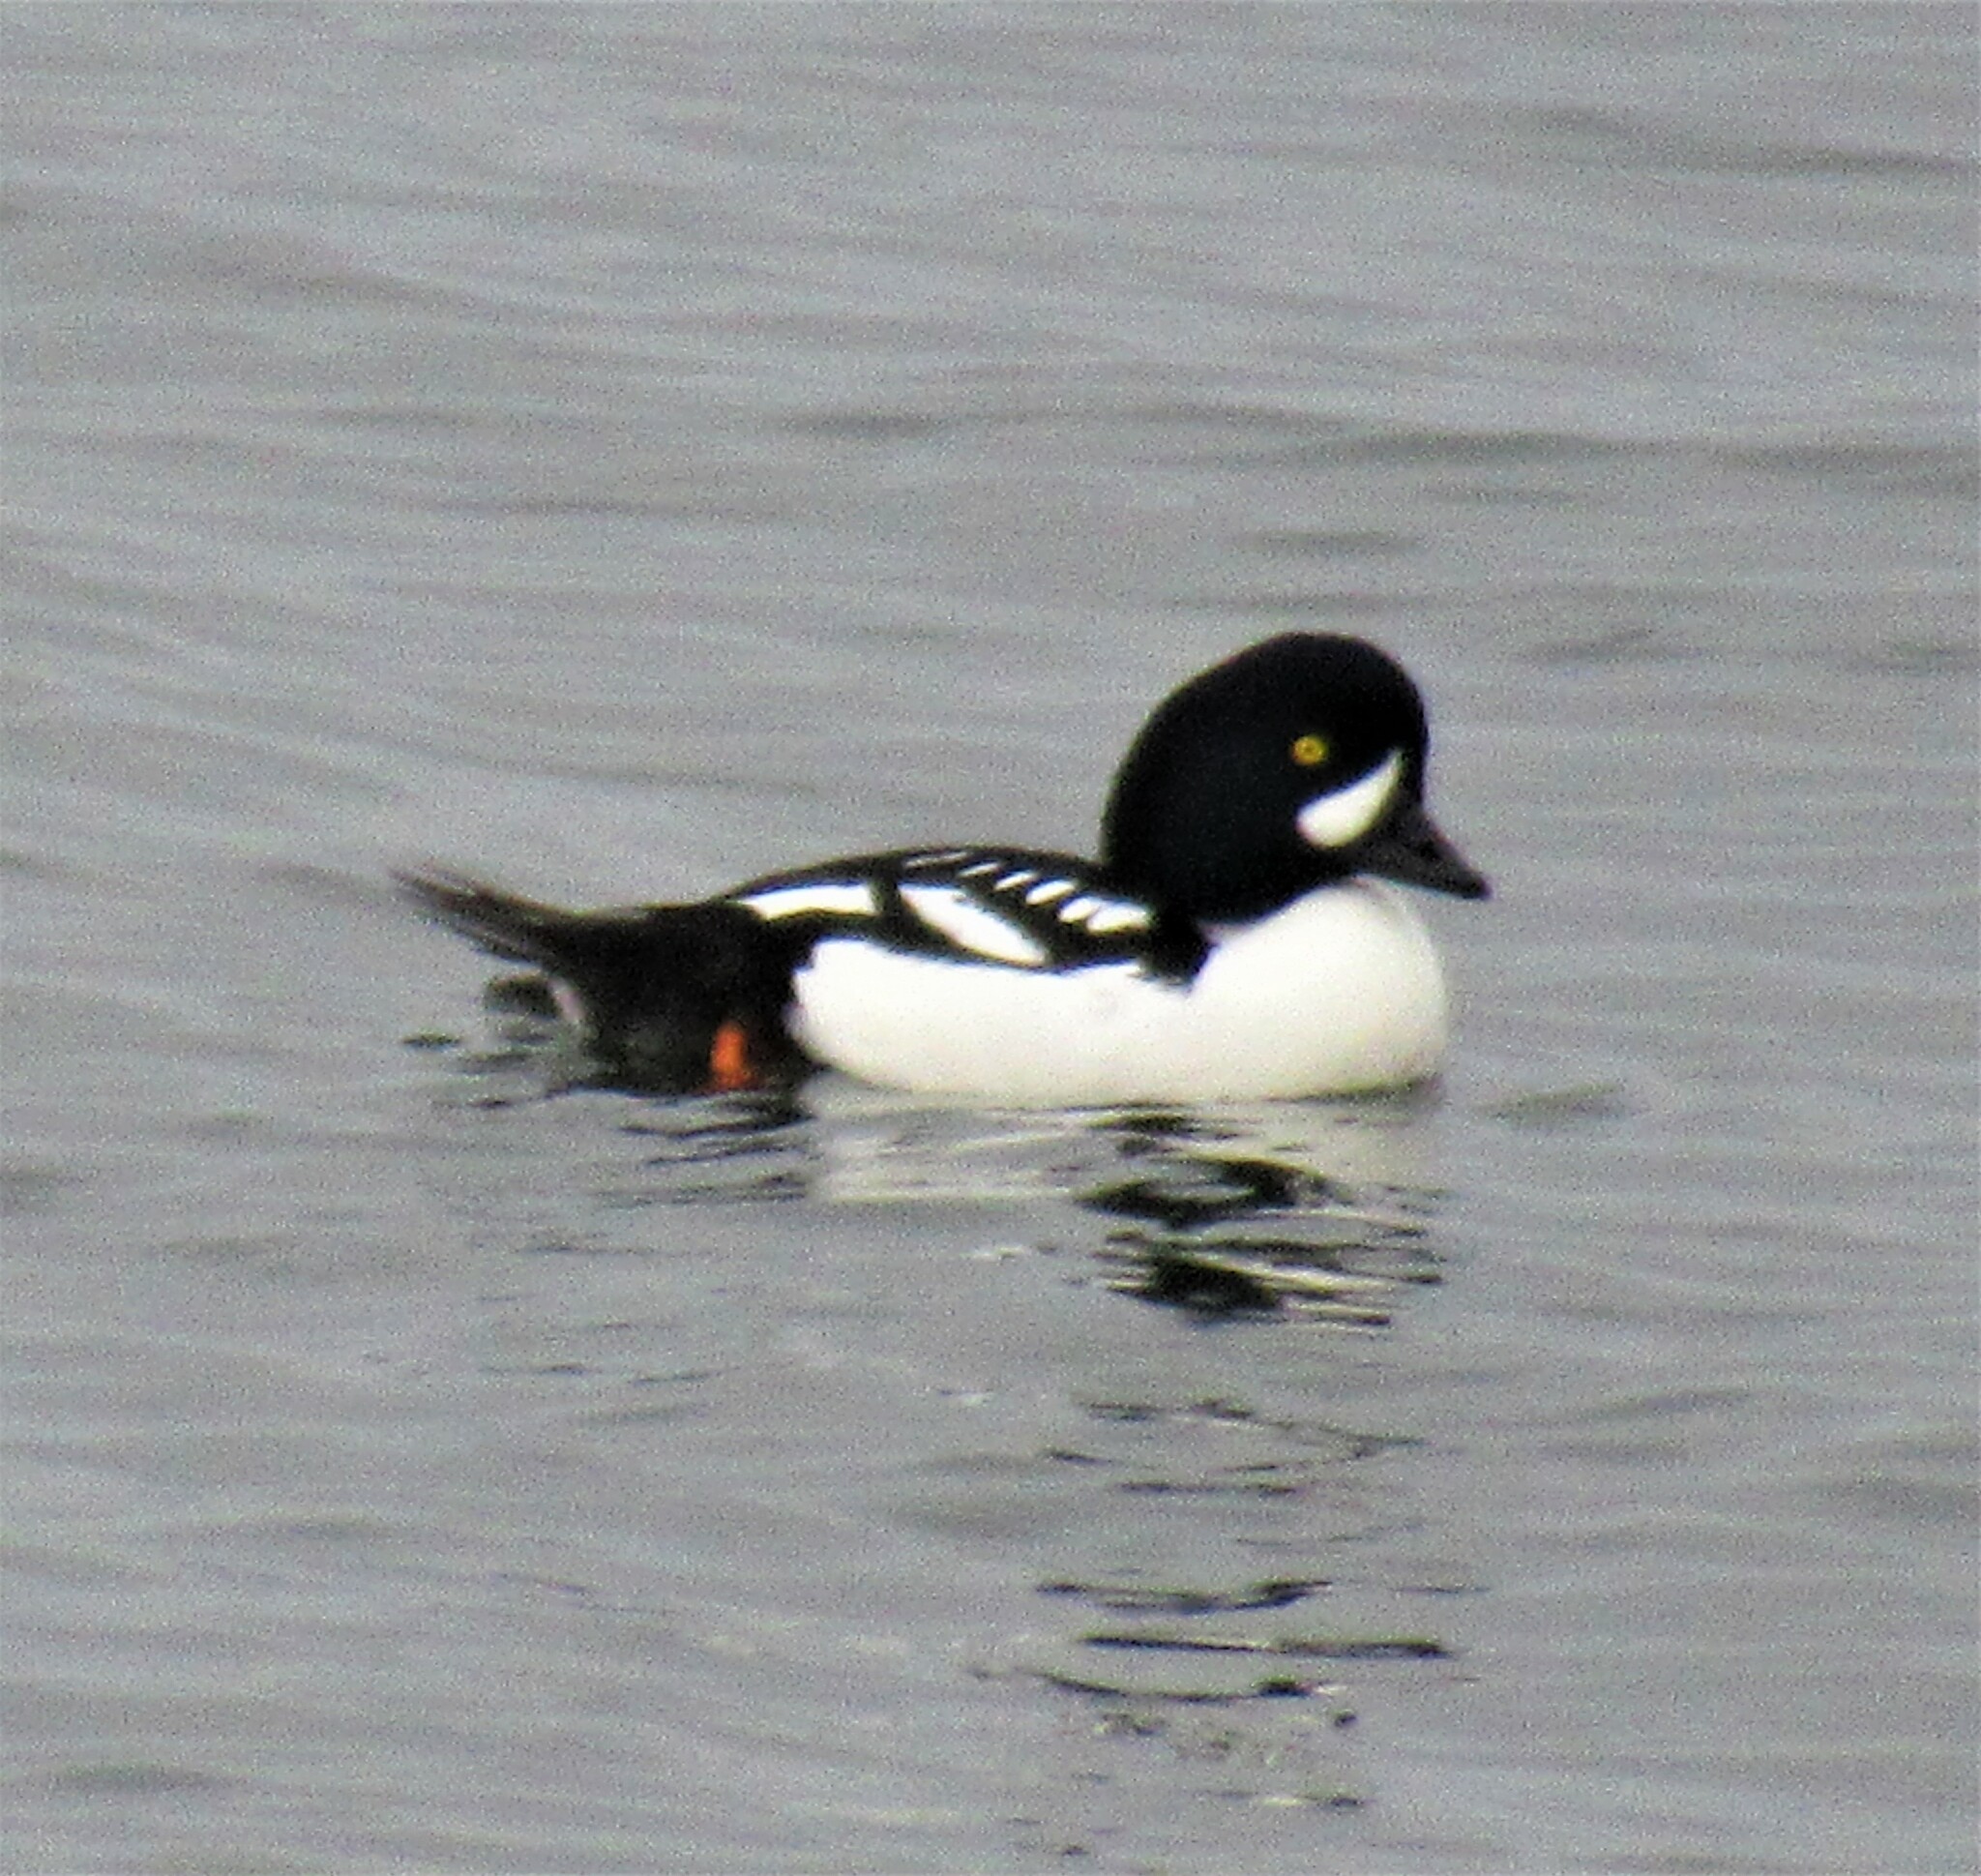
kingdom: Animalia
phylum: Chordata
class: Aves
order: Anseriformes
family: Anatidae
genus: Bucephala
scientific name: Bucephala islandica
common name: Barrow's goldeneye
